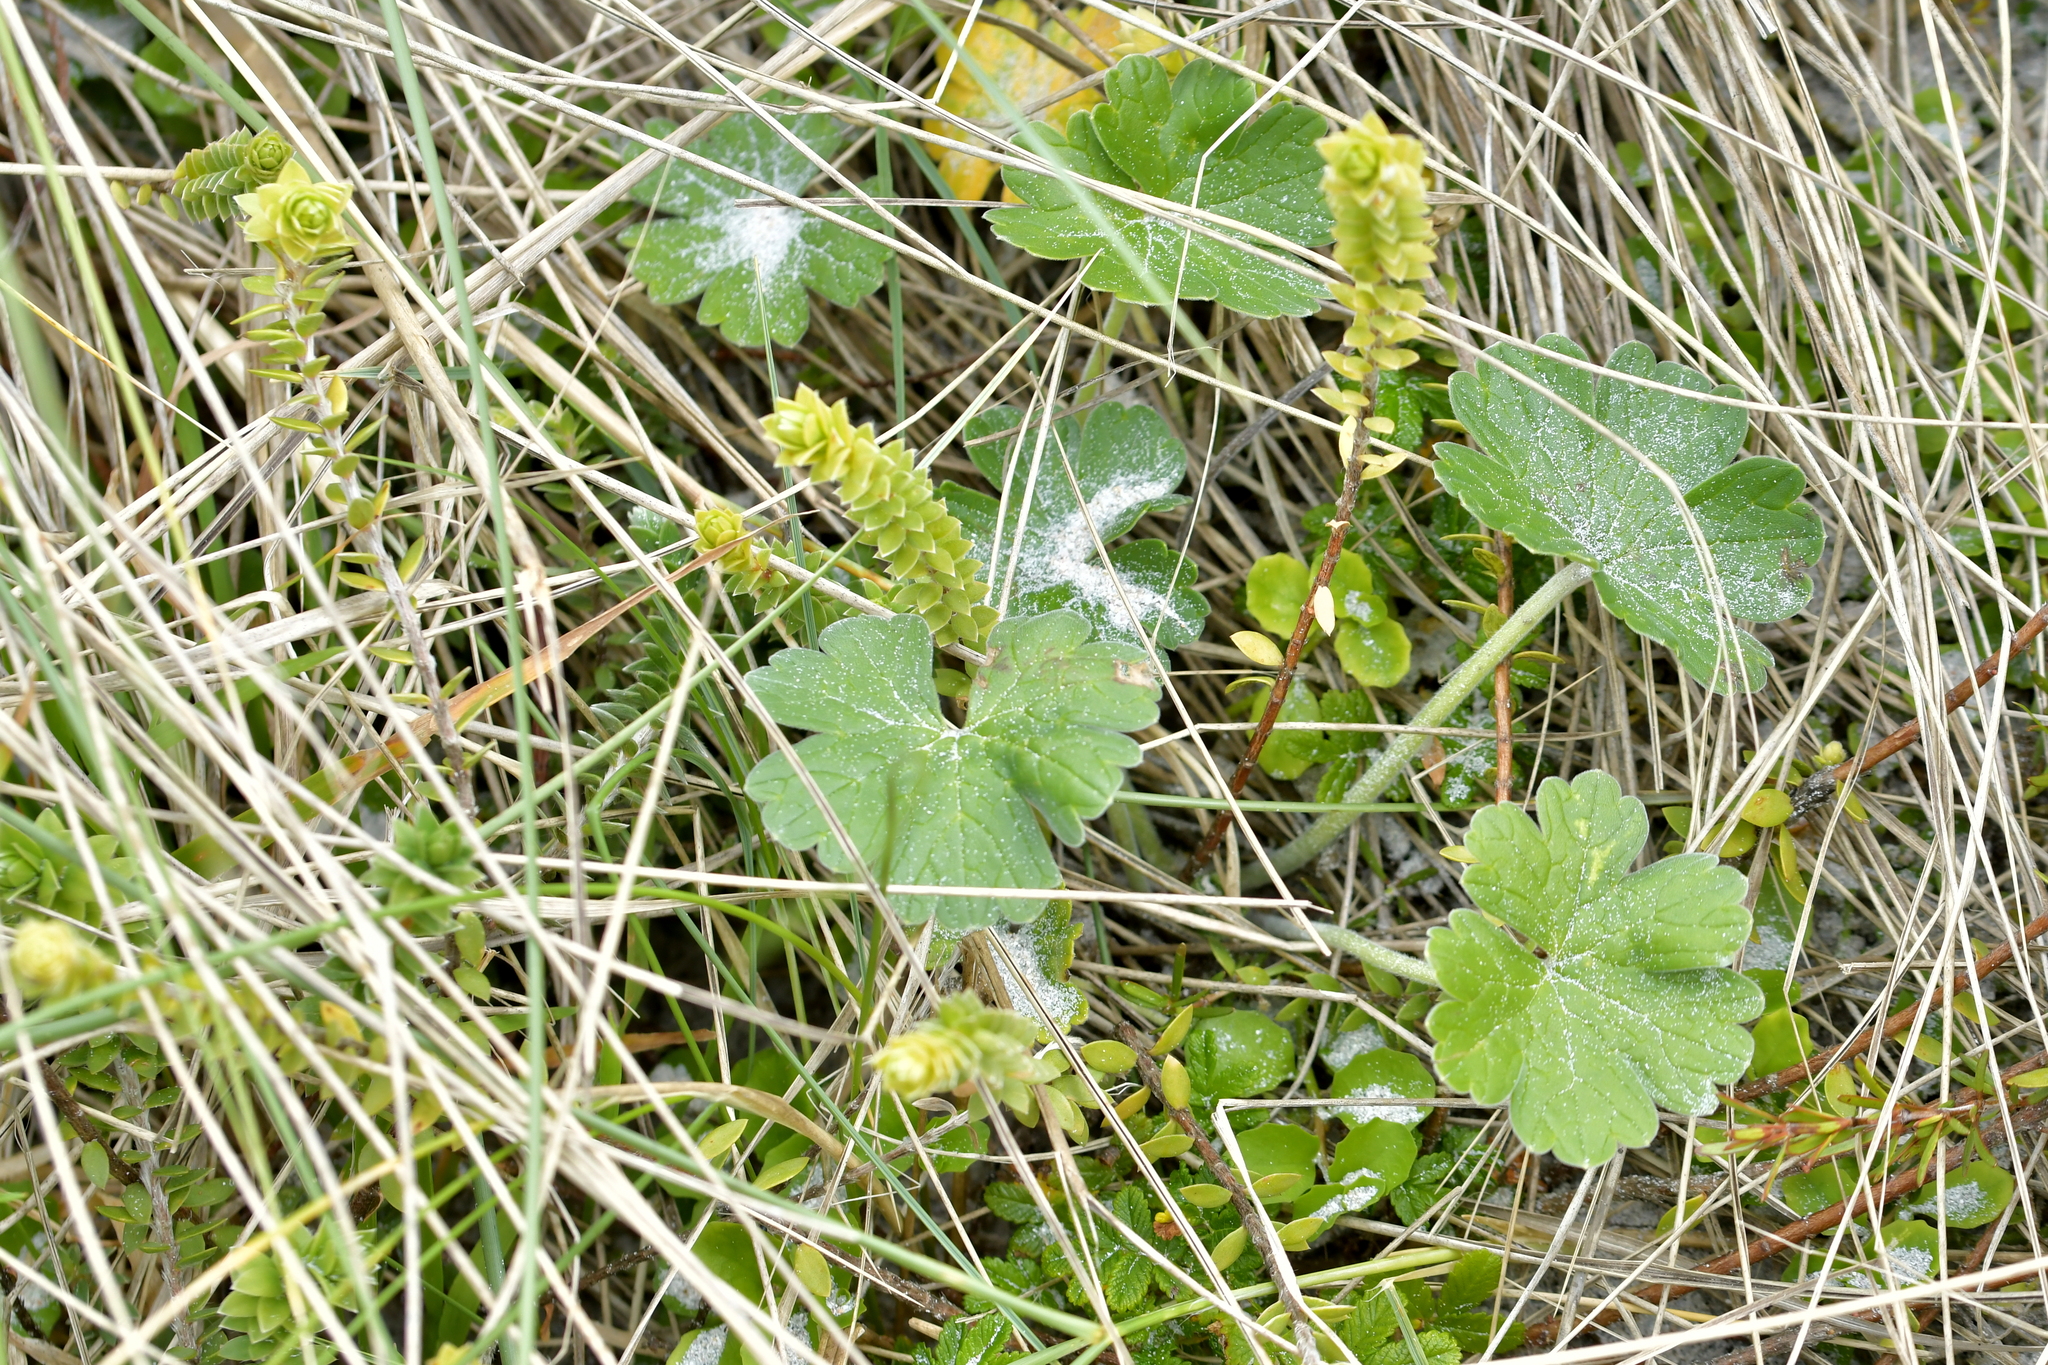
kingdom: Plantae
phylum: Tracheophyta
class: Magnoliopsida
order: Geraniales
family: Geraniaceae
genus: Geranium
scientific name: Geranium traversii
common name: Cranesbill
